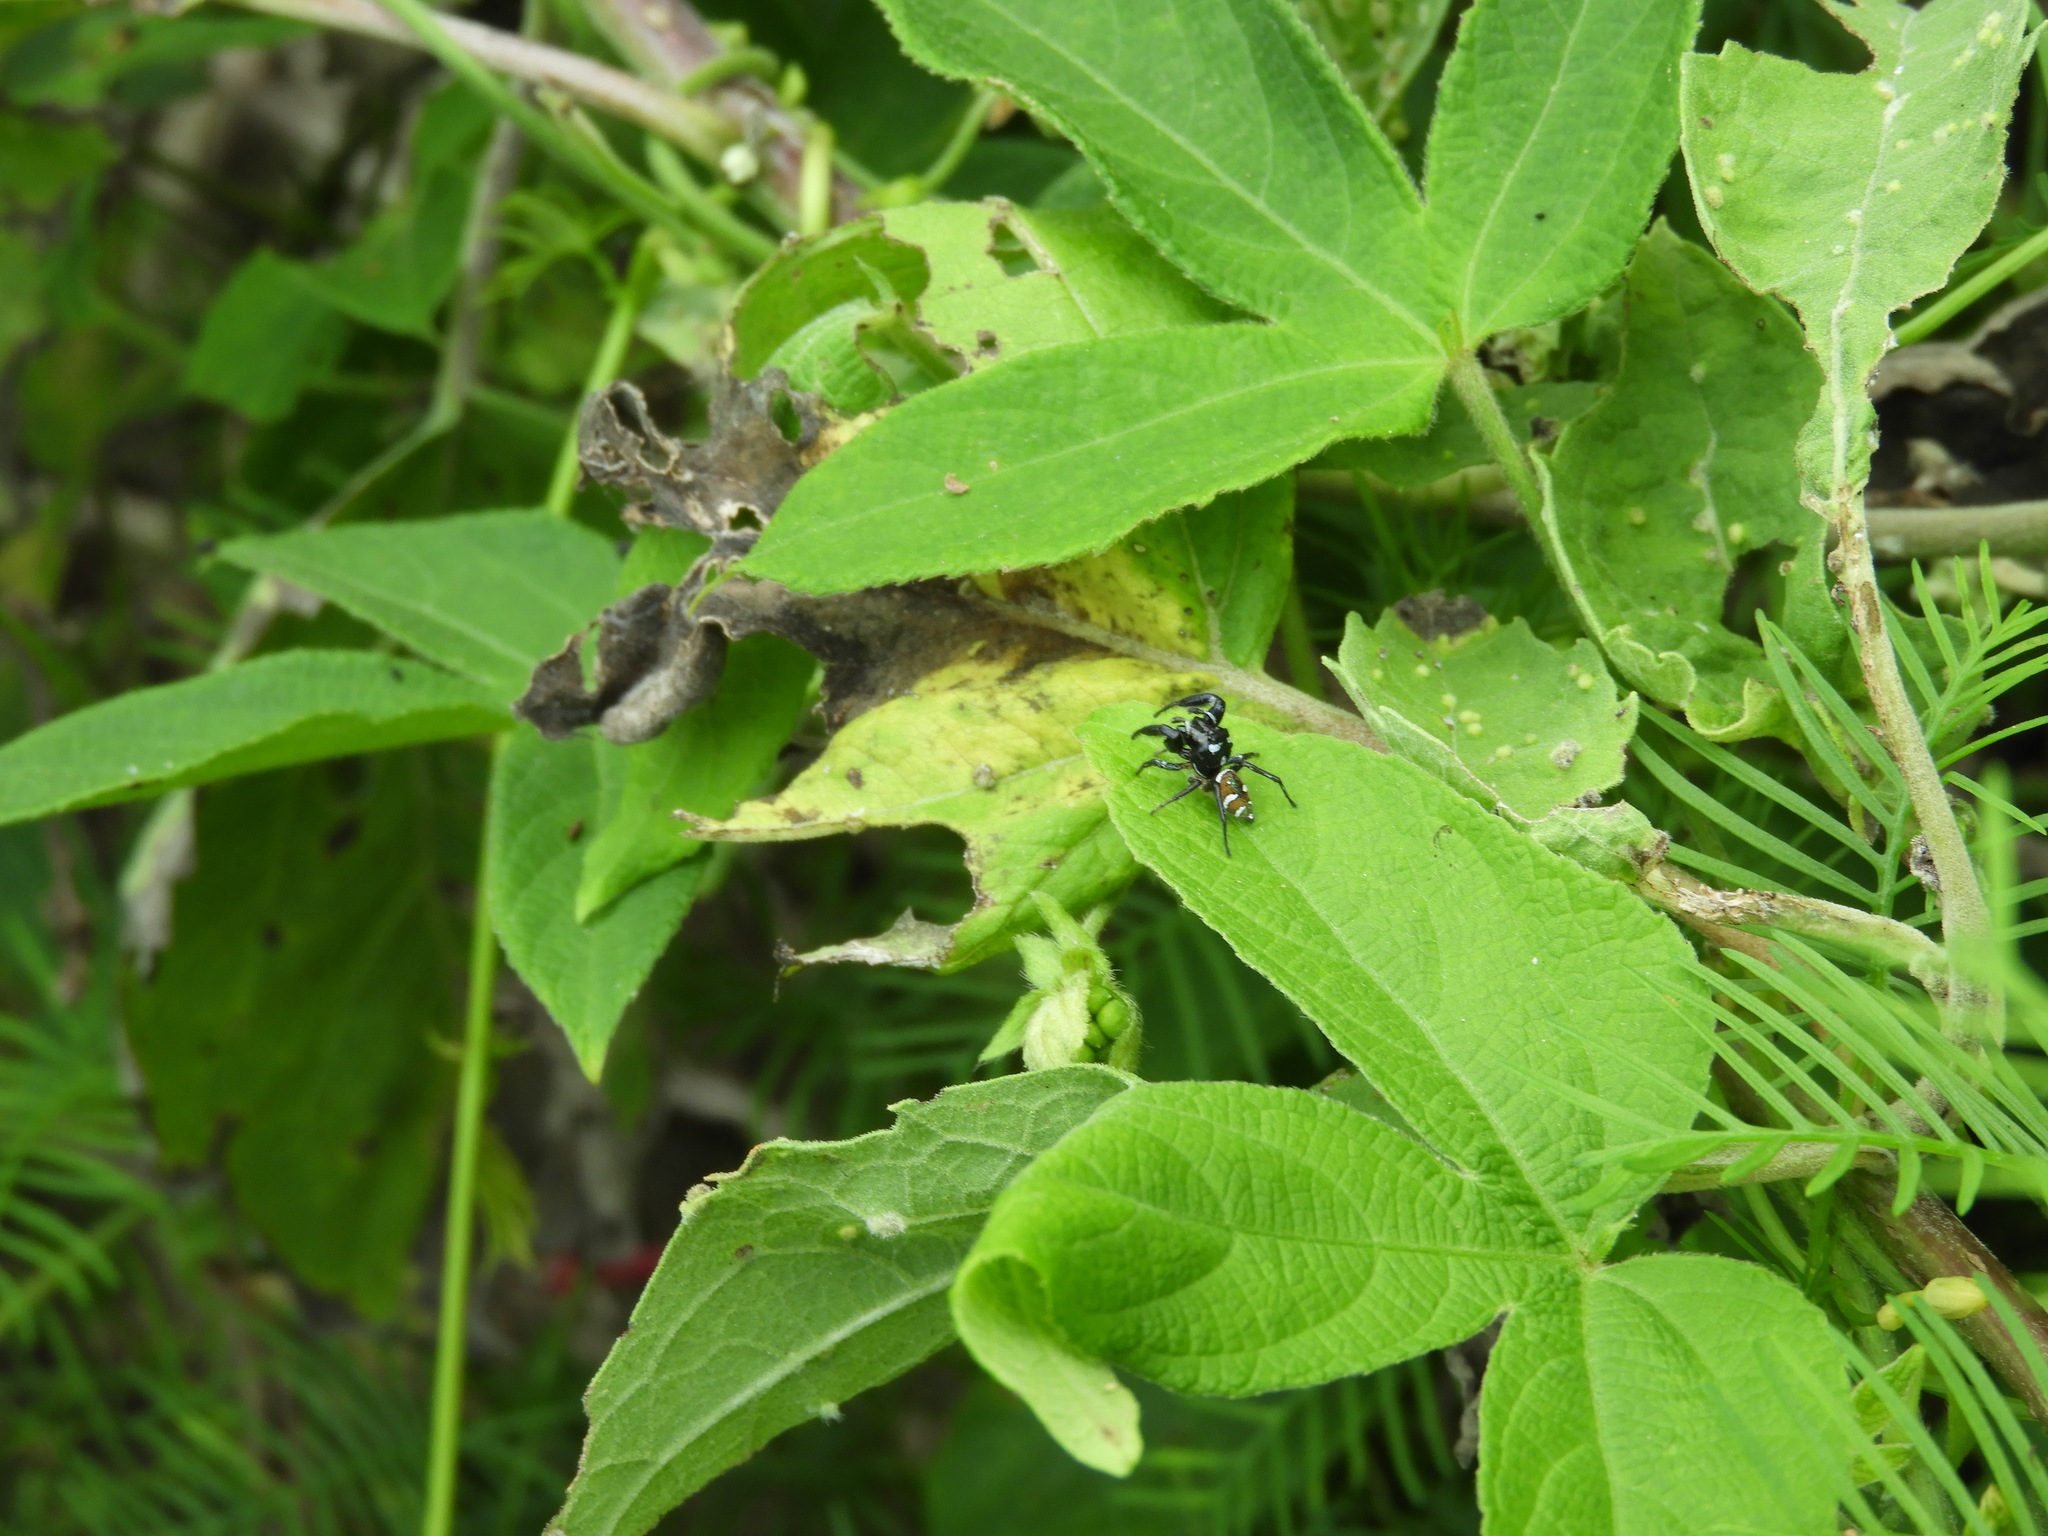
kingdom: Animalia
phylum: Arthropoda
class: Arachnida
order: Araneae
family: Salticidae
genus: Sassacus
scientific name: Sassacus
